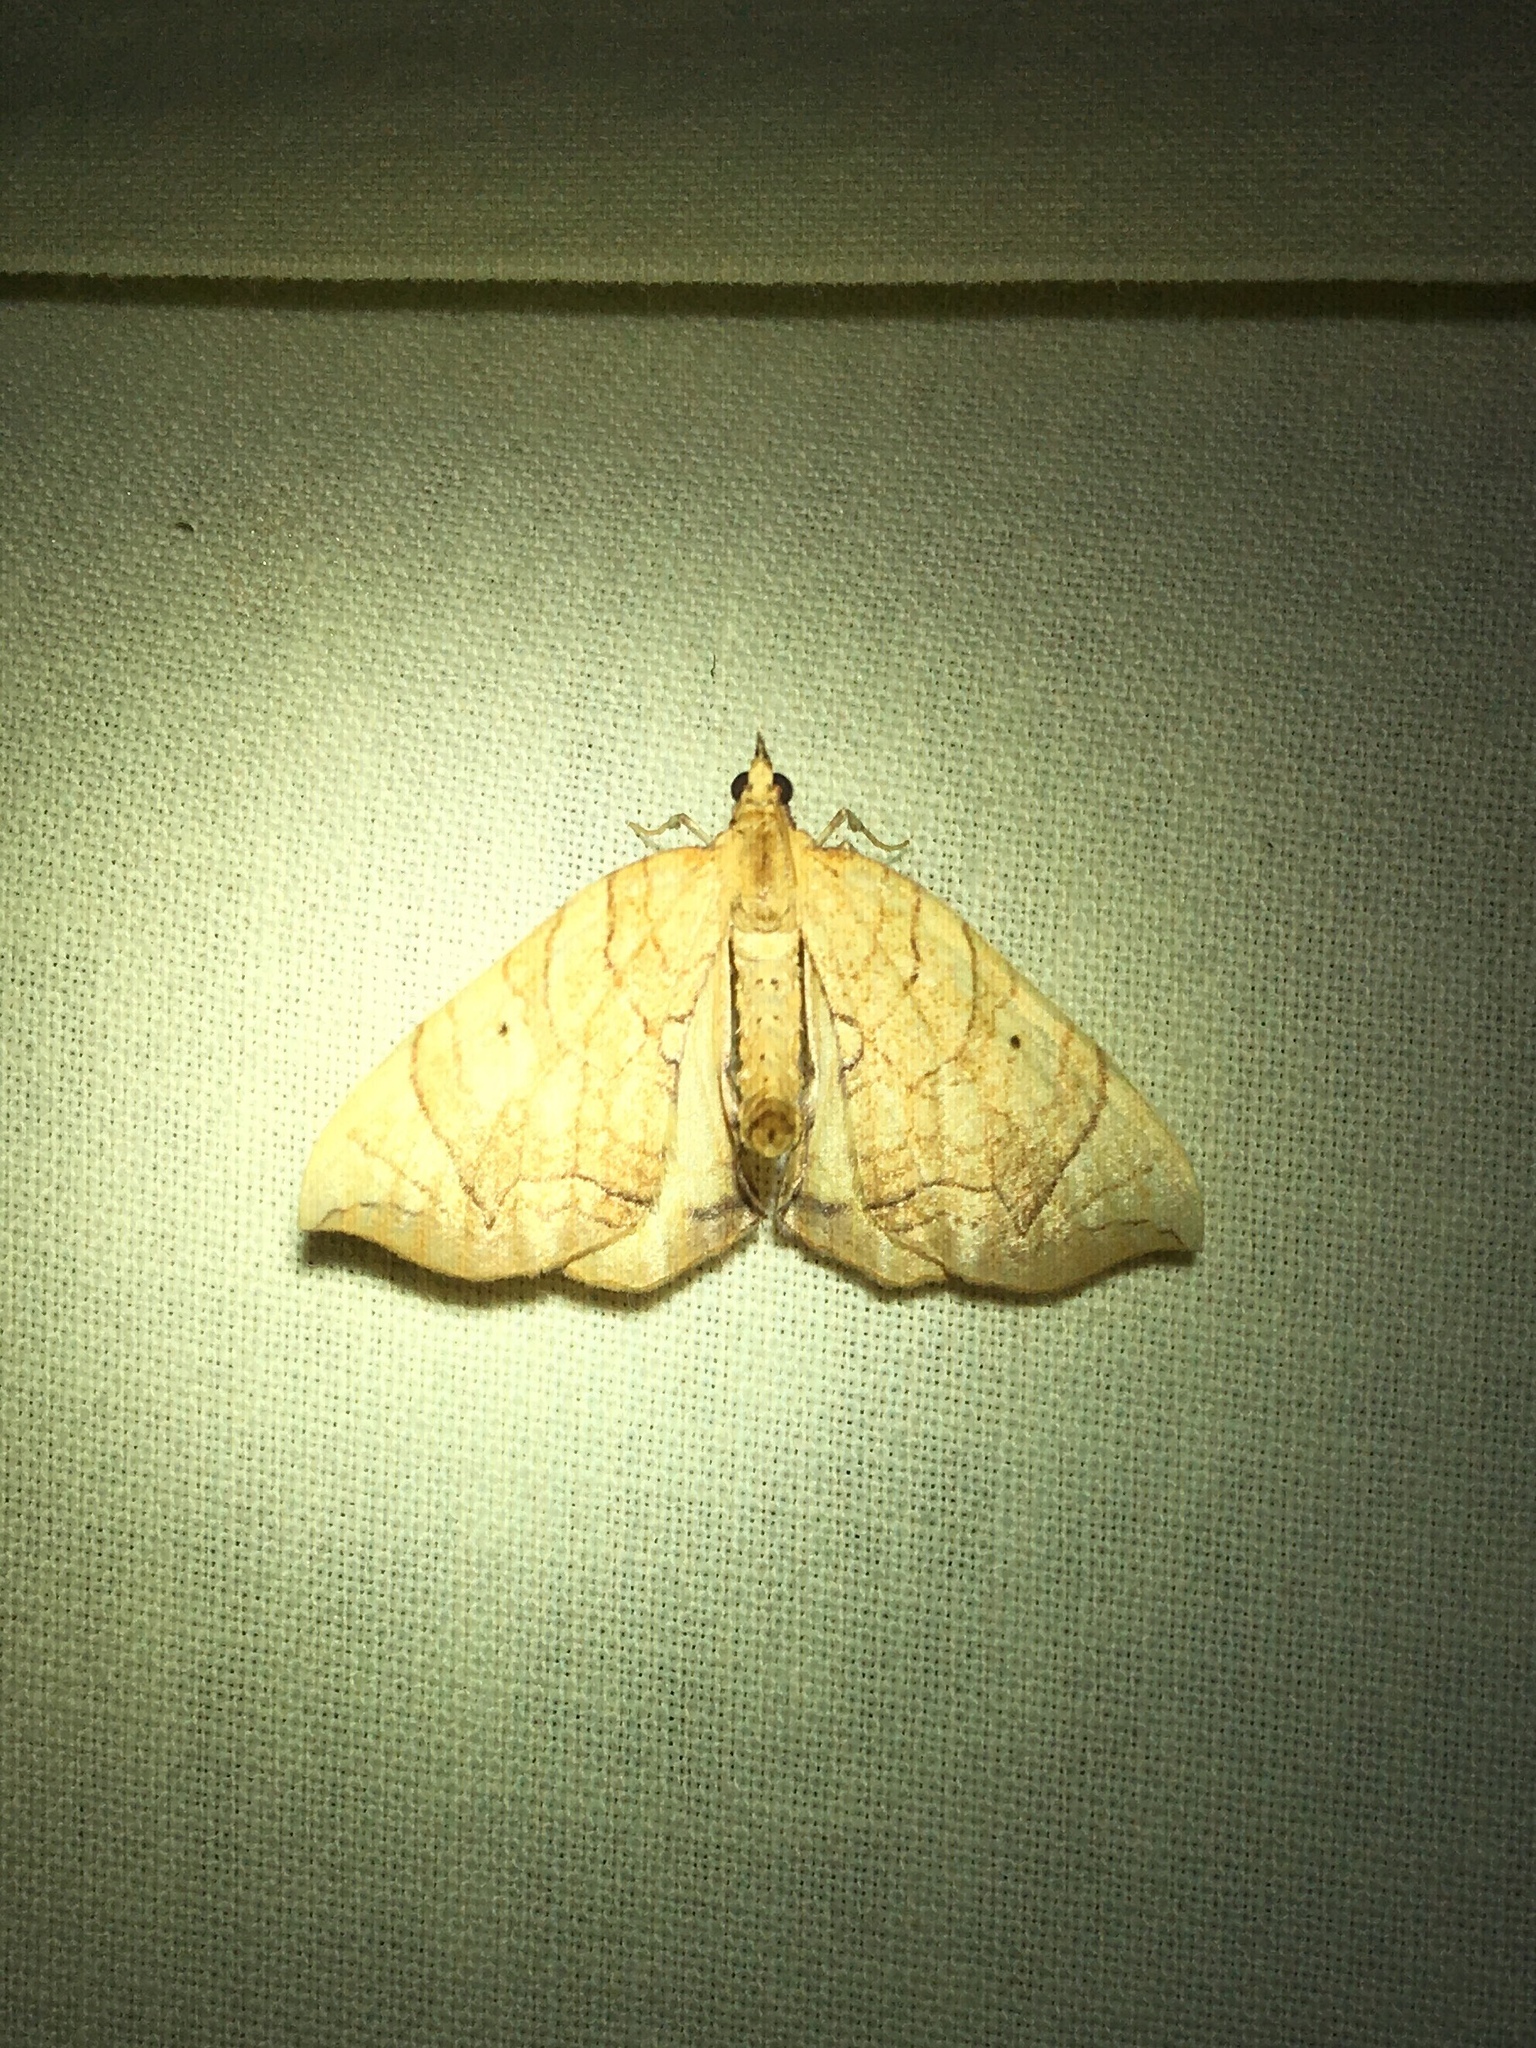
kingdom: Animalia
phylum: Arthropoda
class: Insecta
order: Lepidoptera
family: Geometridae
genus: Eulithis
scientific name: Eulithis
